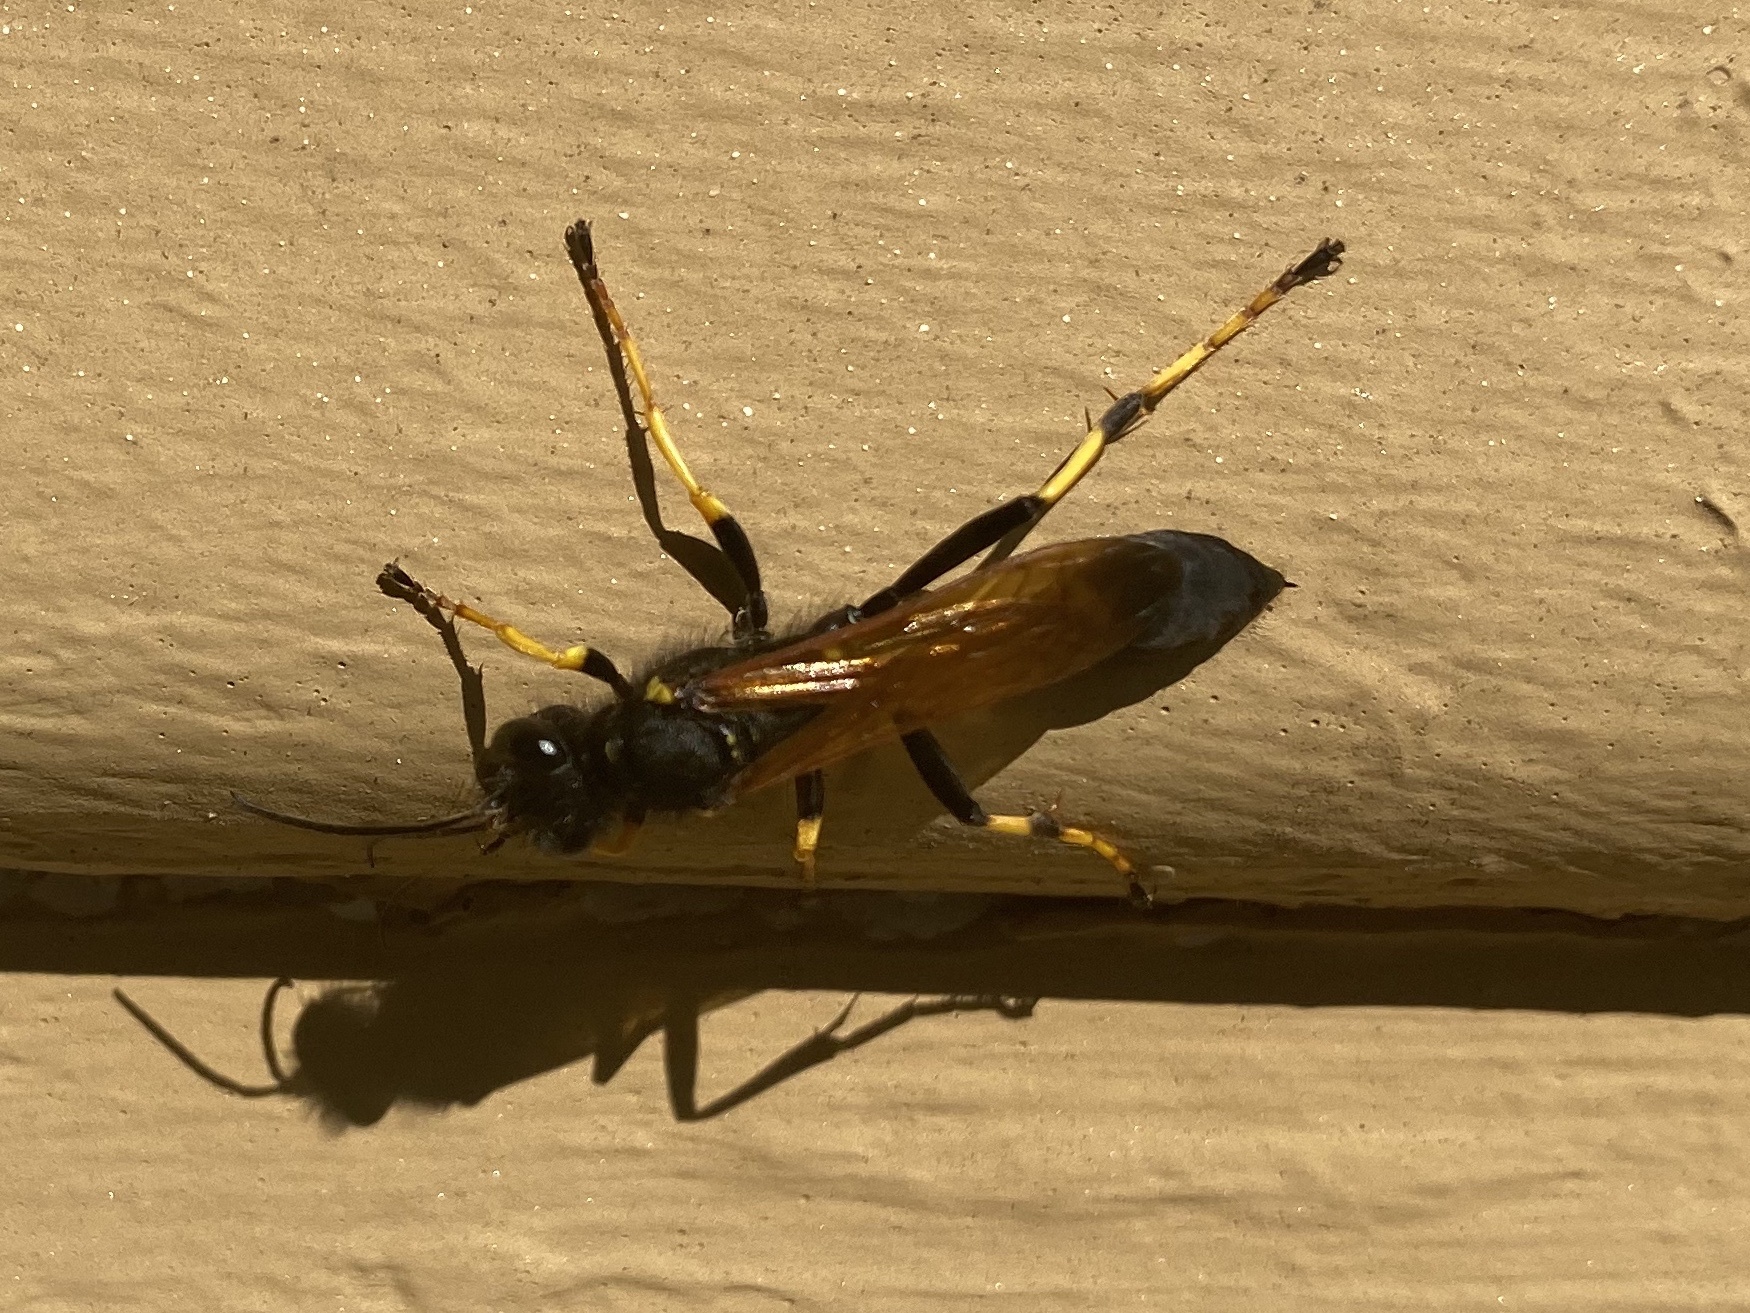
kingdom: Animalia
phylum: Arthropoda
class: Insecta
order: Hymenoptera
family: Sphecidae
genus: Sceliphron
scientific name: Sceliphron caementarium
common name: Mud dauber
